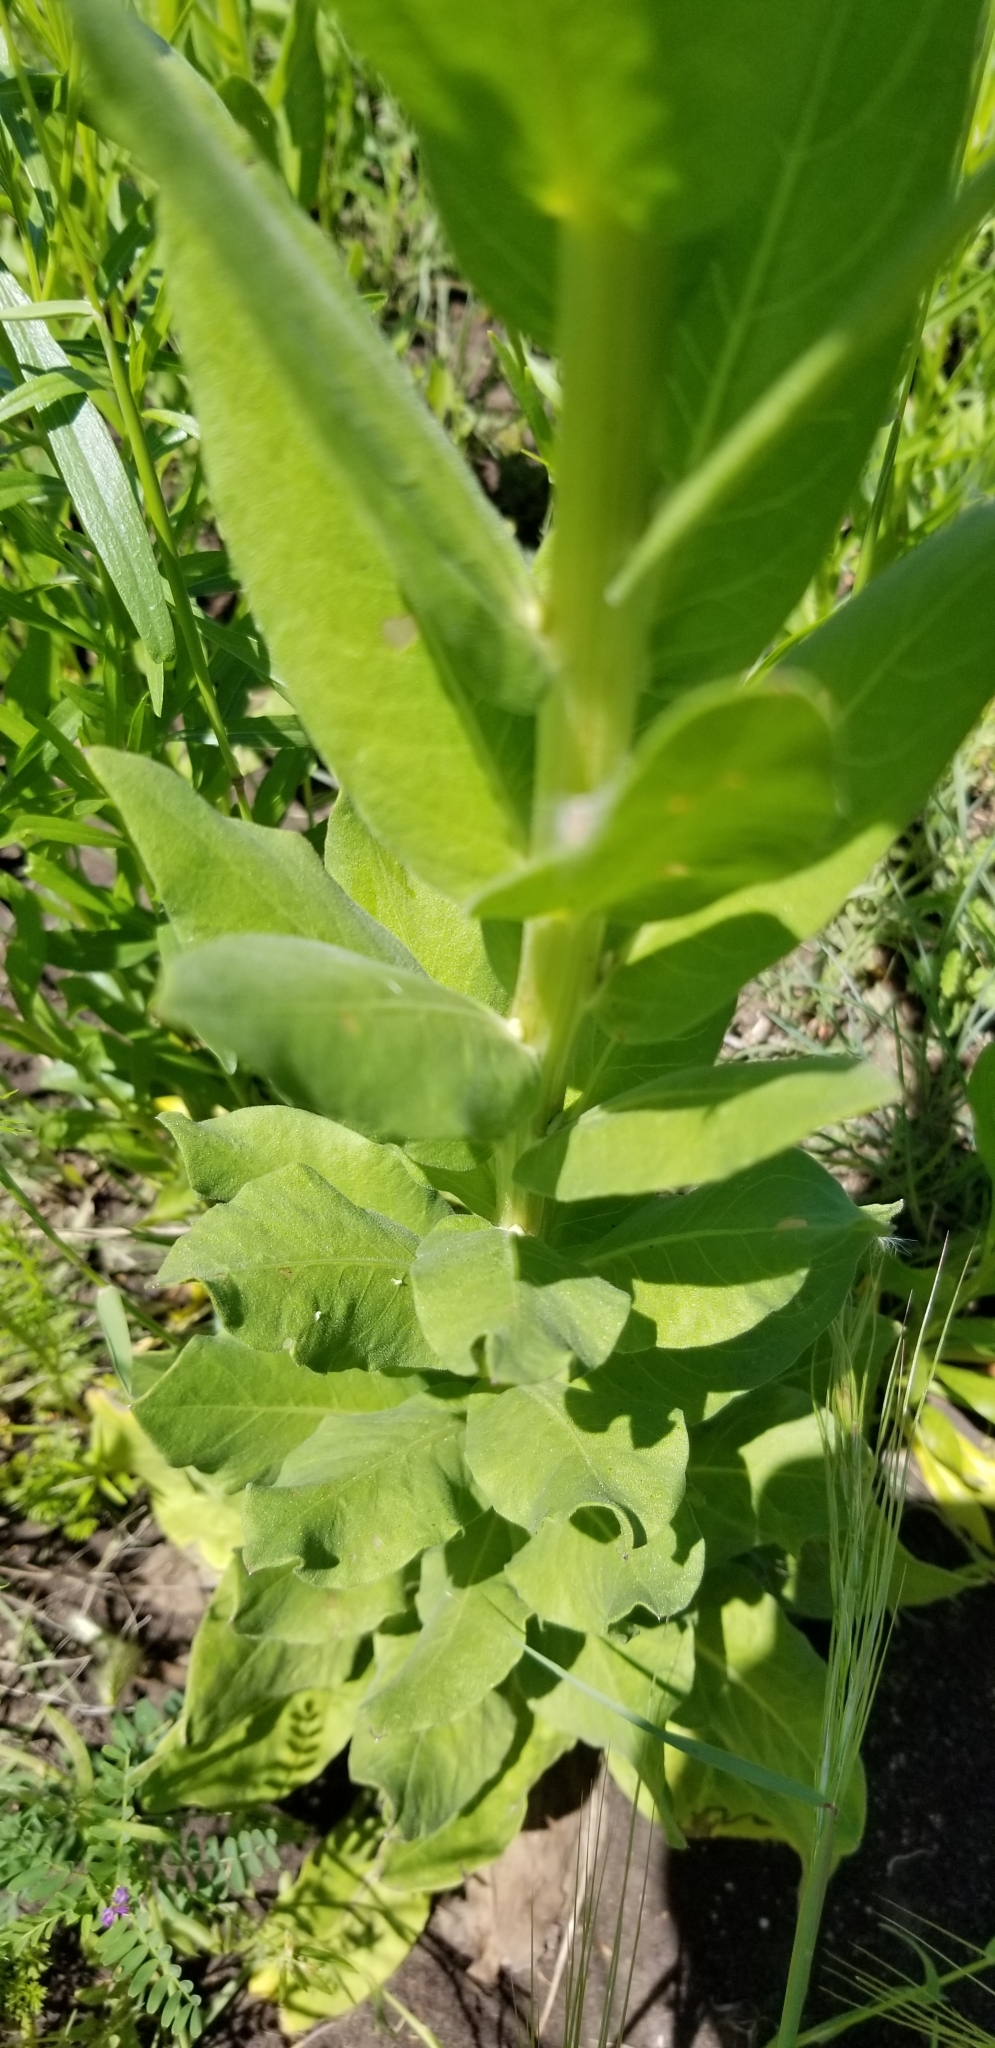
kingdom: Plantae
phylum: Tracheophyta
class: Magnoliopsida
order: Asterales
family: Asteraceae
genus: Plectocephalus
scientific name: Plectocephalus americanus
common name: American basket-flower
